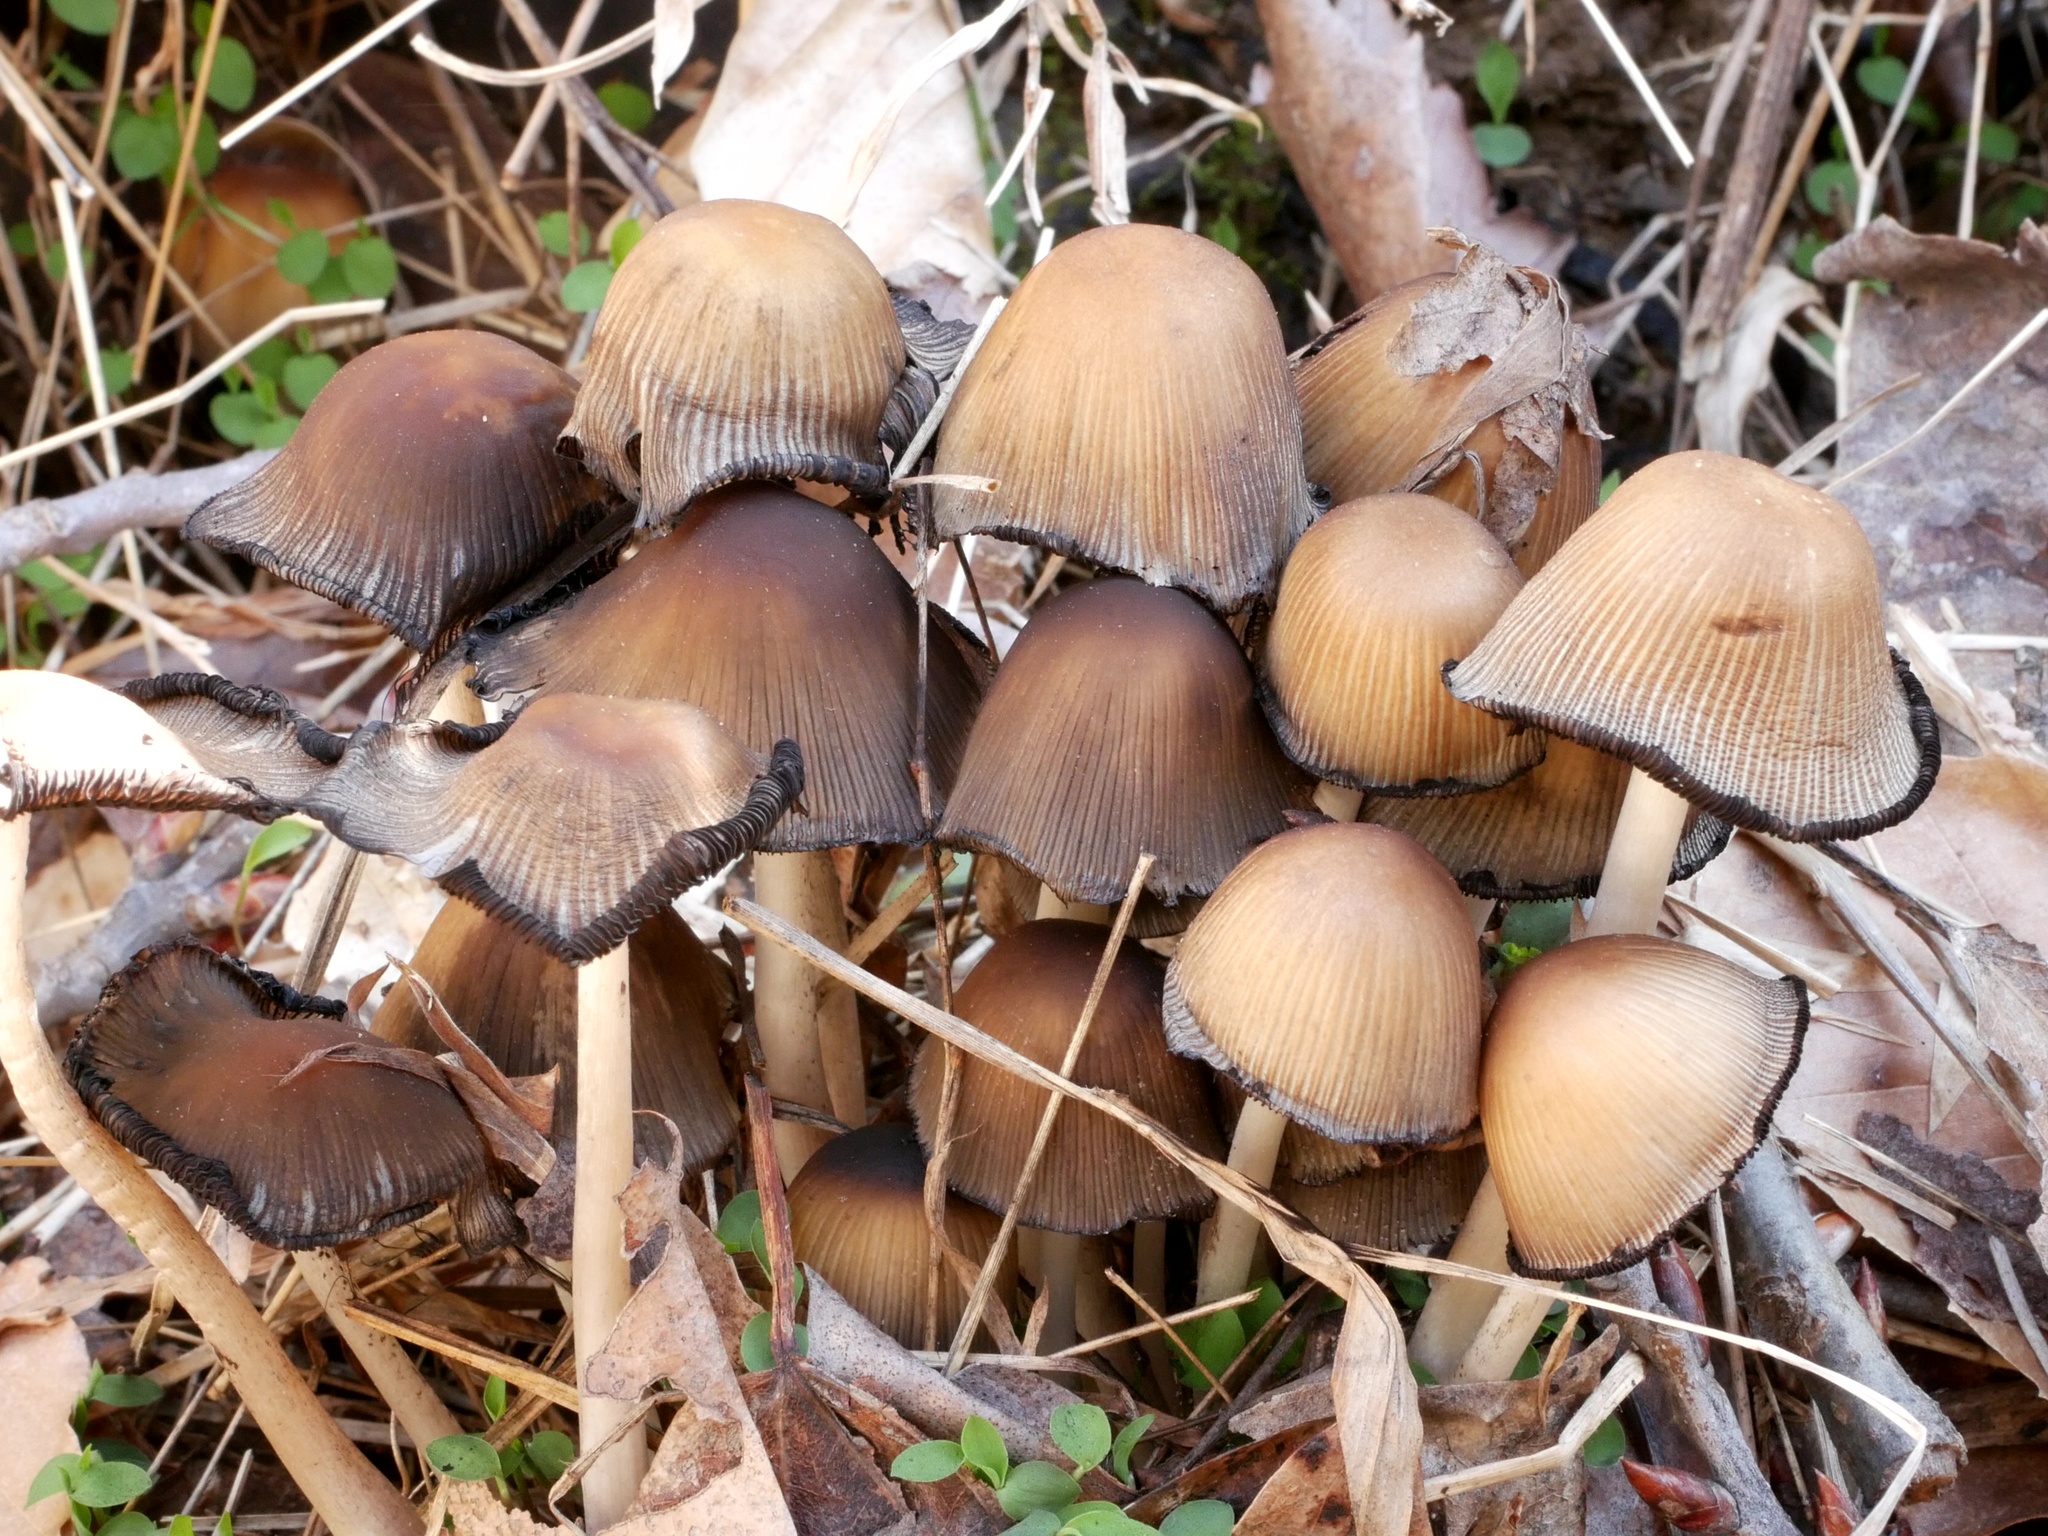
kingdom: Fungi
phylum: Basidiomycota
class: Agaricomycetes
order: Agaricales
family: Psathyrellaceae
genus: Coprinellus
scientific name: Coprinellus micaceus
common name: Glistening ink-cap
